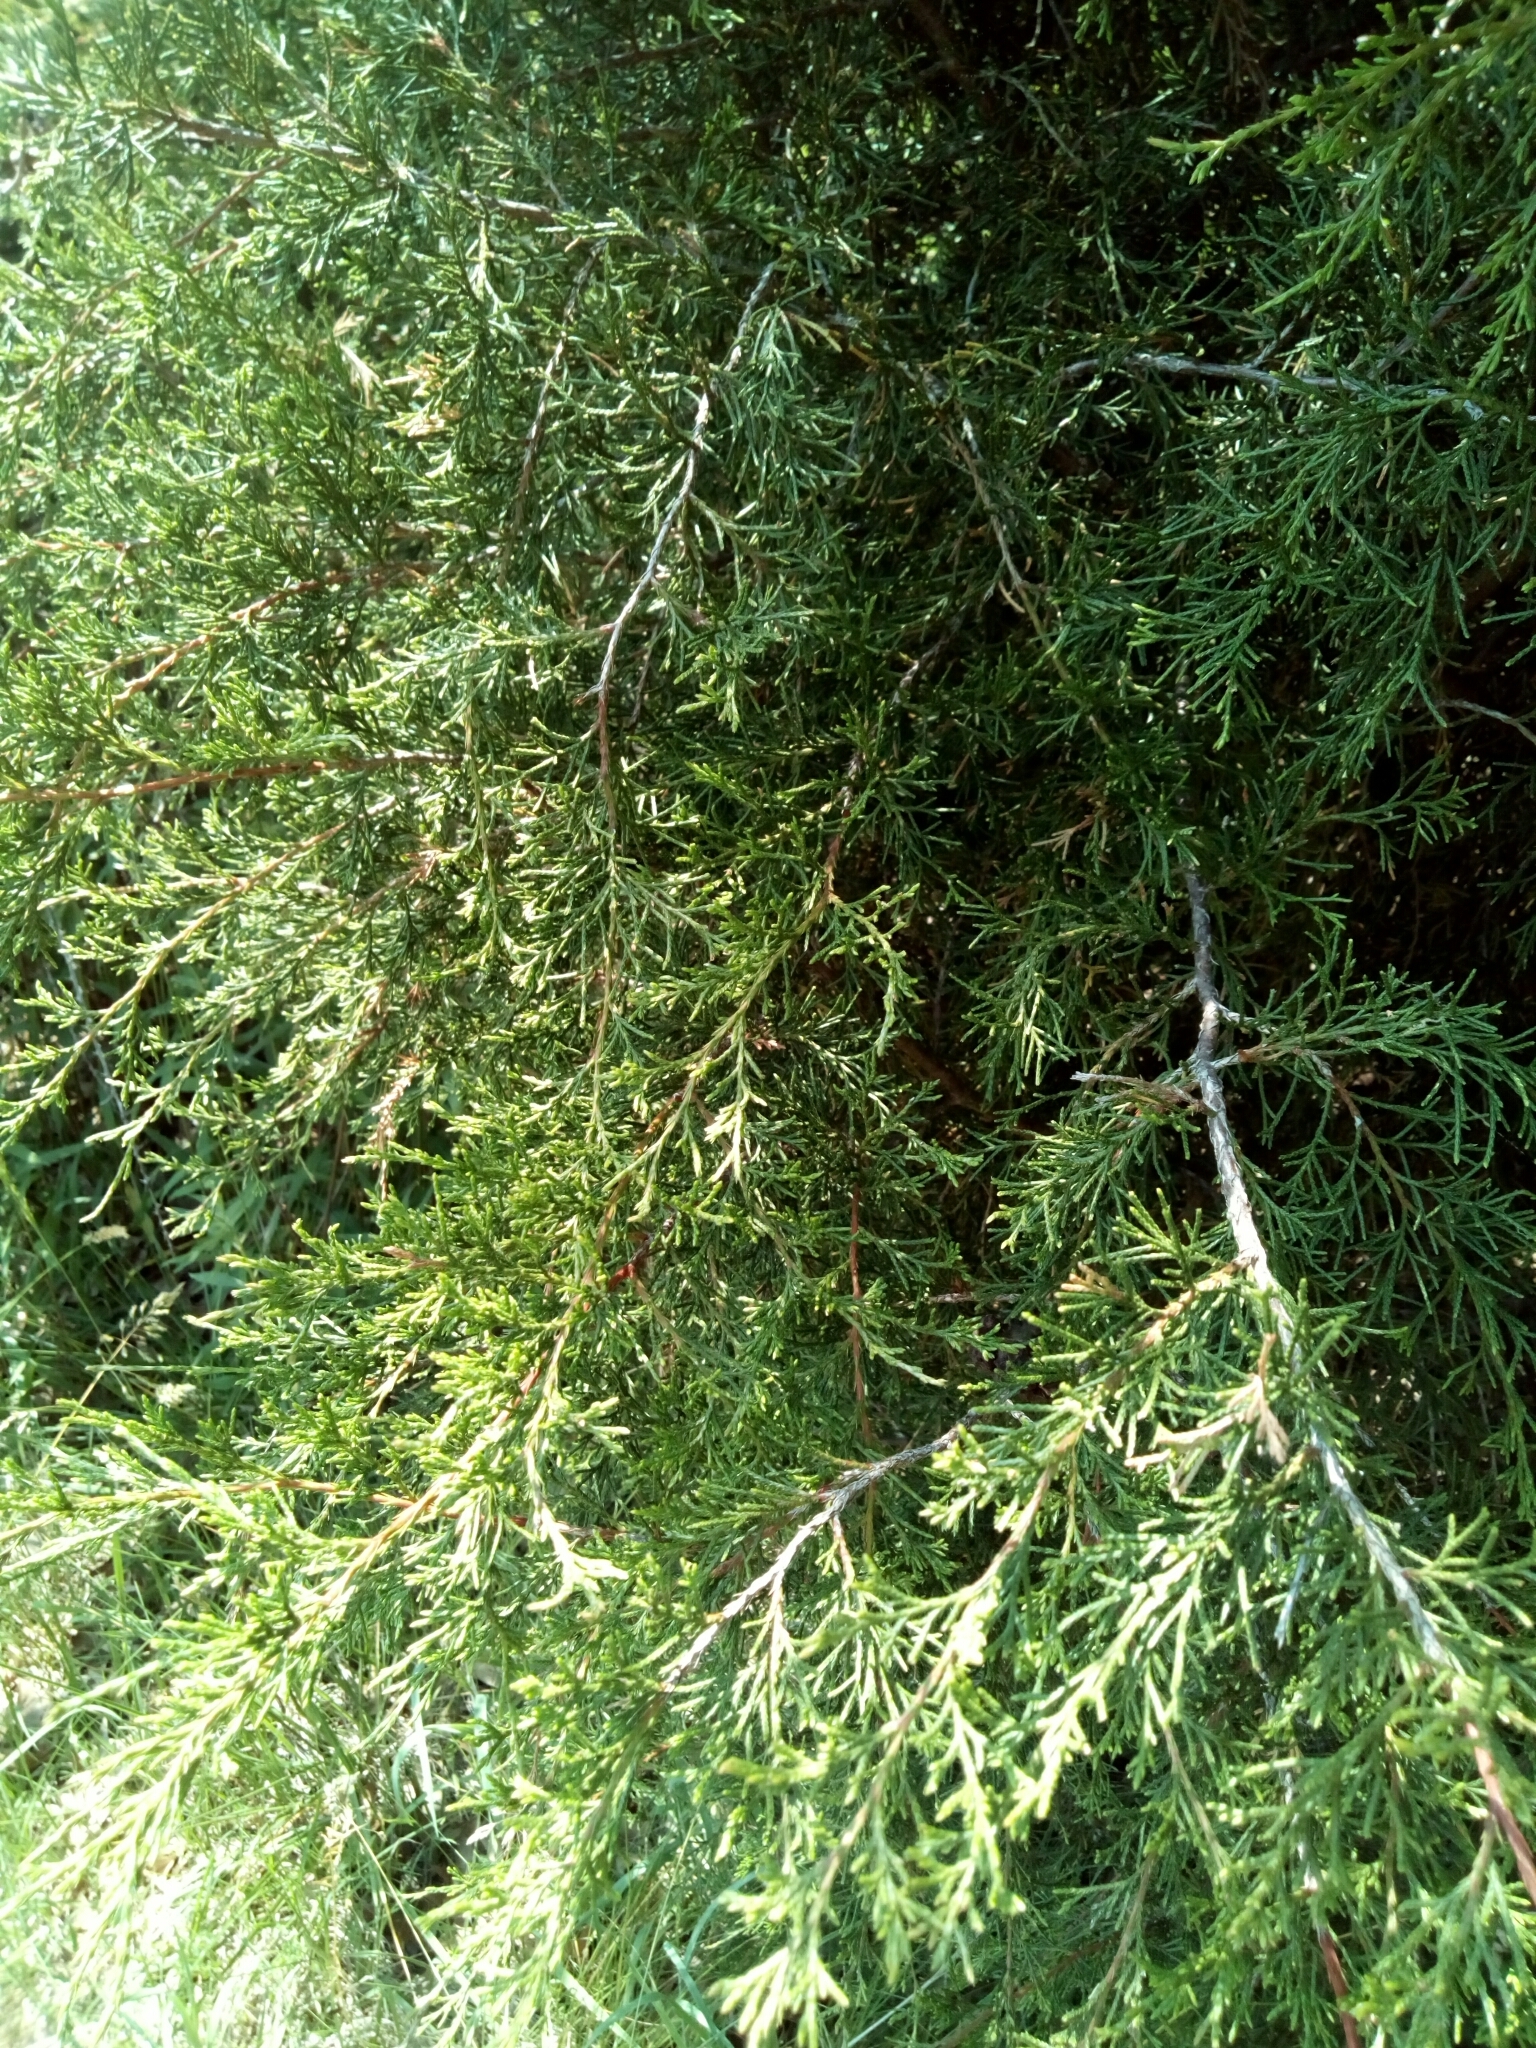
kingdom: Plantae
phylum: Tracheophyta
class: Pinopsida
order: Pinales
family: Cupressaceae
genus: Juniperus
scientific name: Juniperus virginiana
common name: Red juniper
